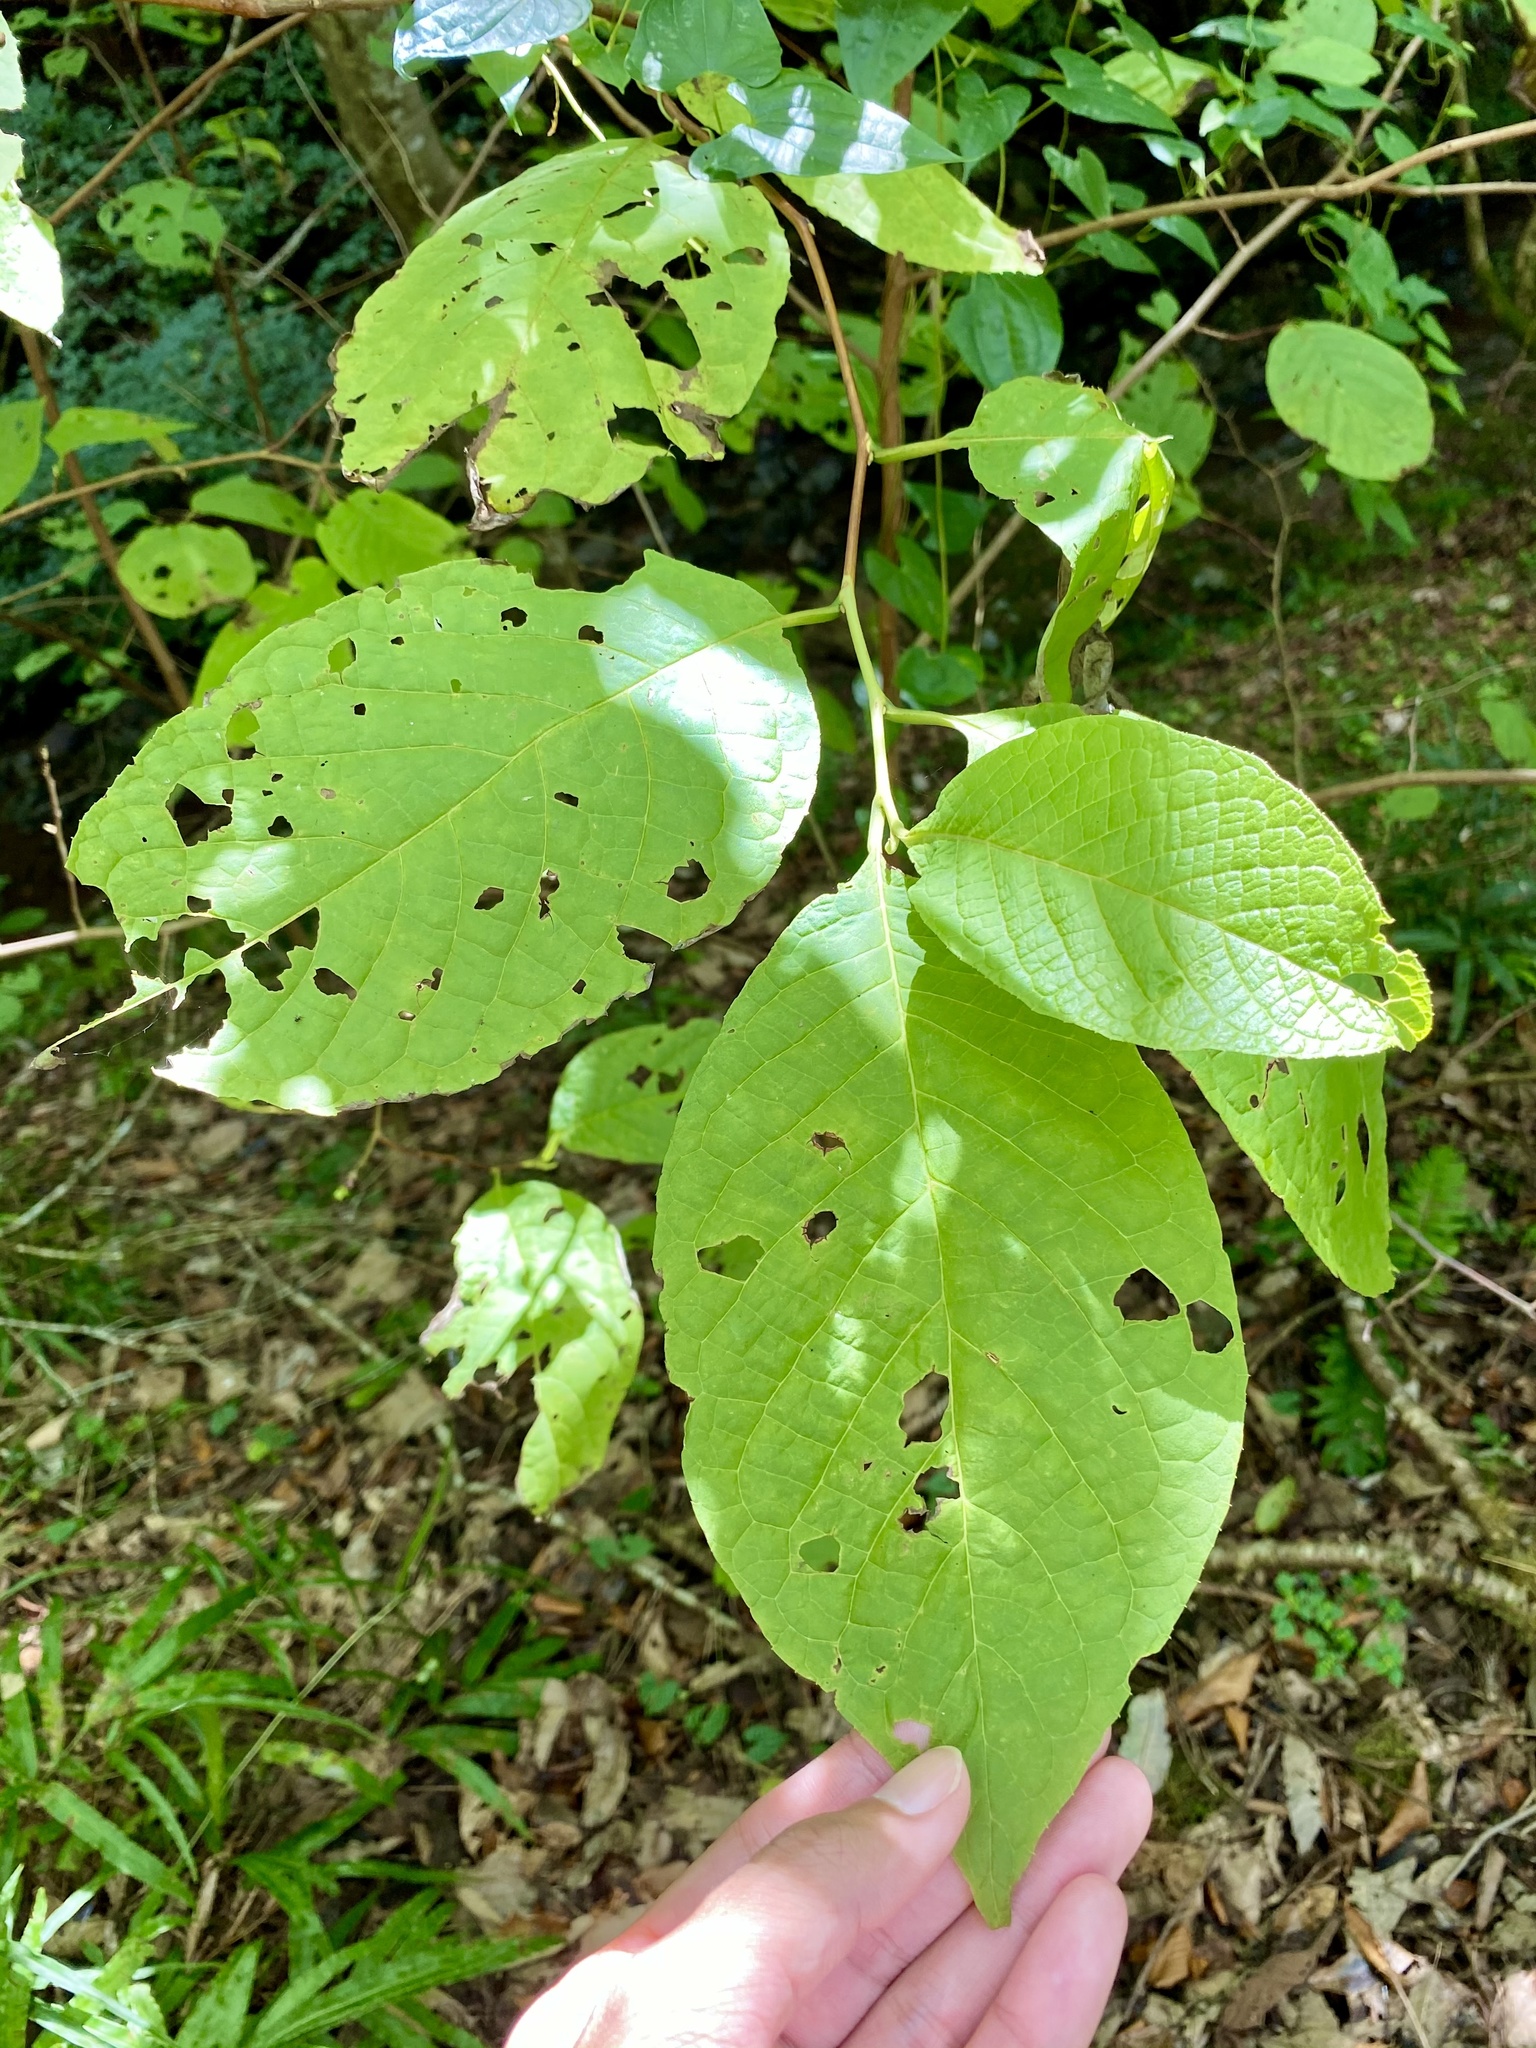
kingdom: Plantae
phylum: Tracheophyta
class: Magnoliopsida
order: Ericales
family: Styracaceae
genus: Pterostyrax
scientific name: Pterostyrax hispidus
